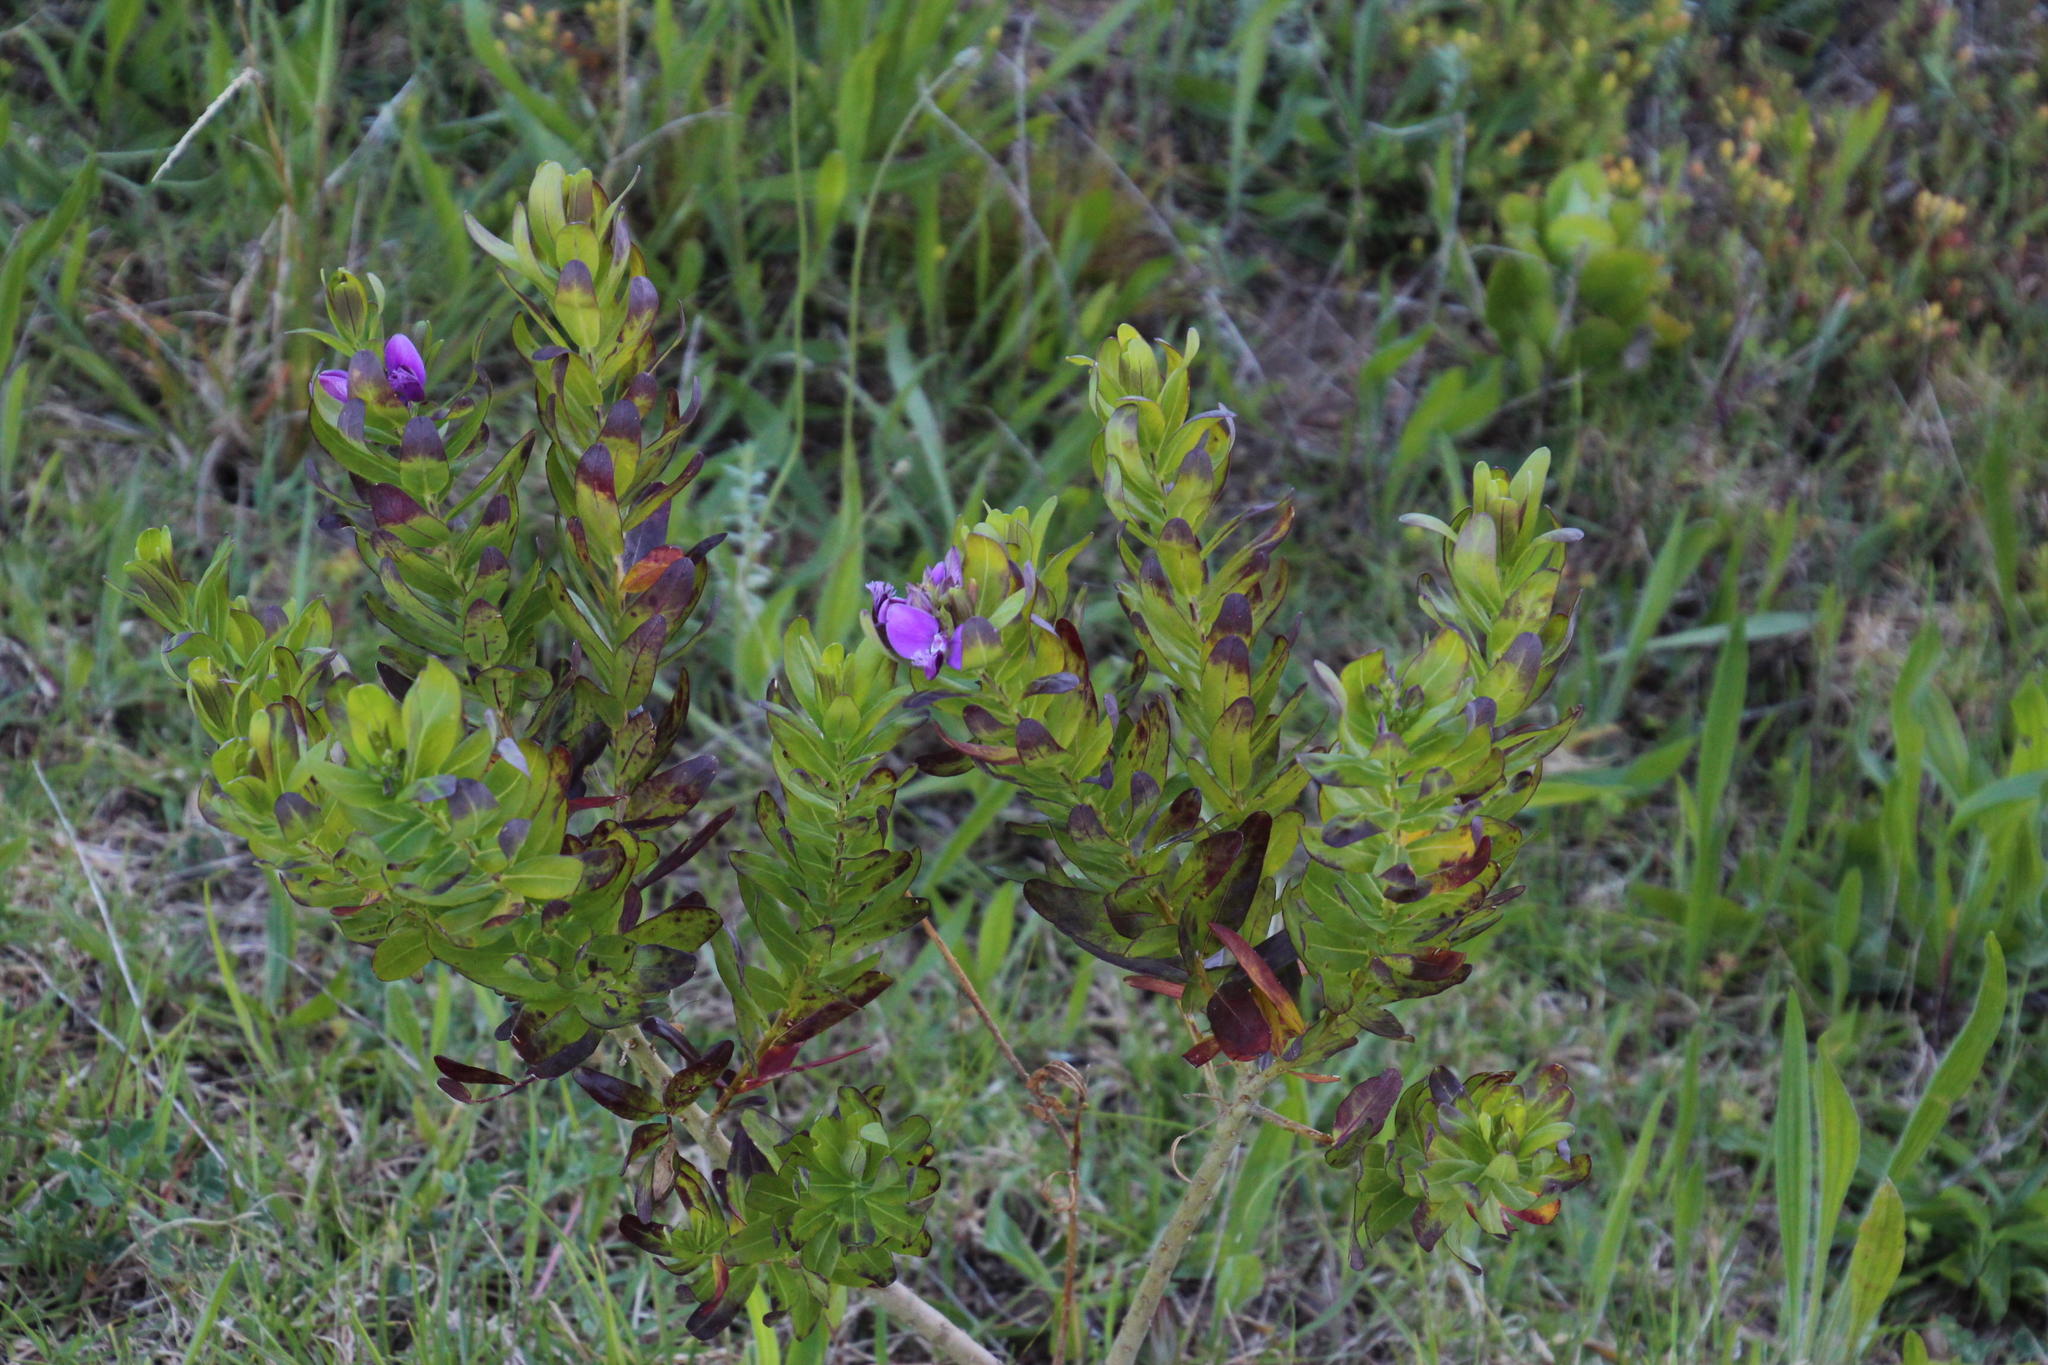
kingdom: Plantae
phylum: Tracheophyta
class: Magnoliopsida
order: Fabales
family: Polygalaceae
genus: Polygala
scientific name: Polygala myrtifolia
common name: Myrtle-leaf milkwort
